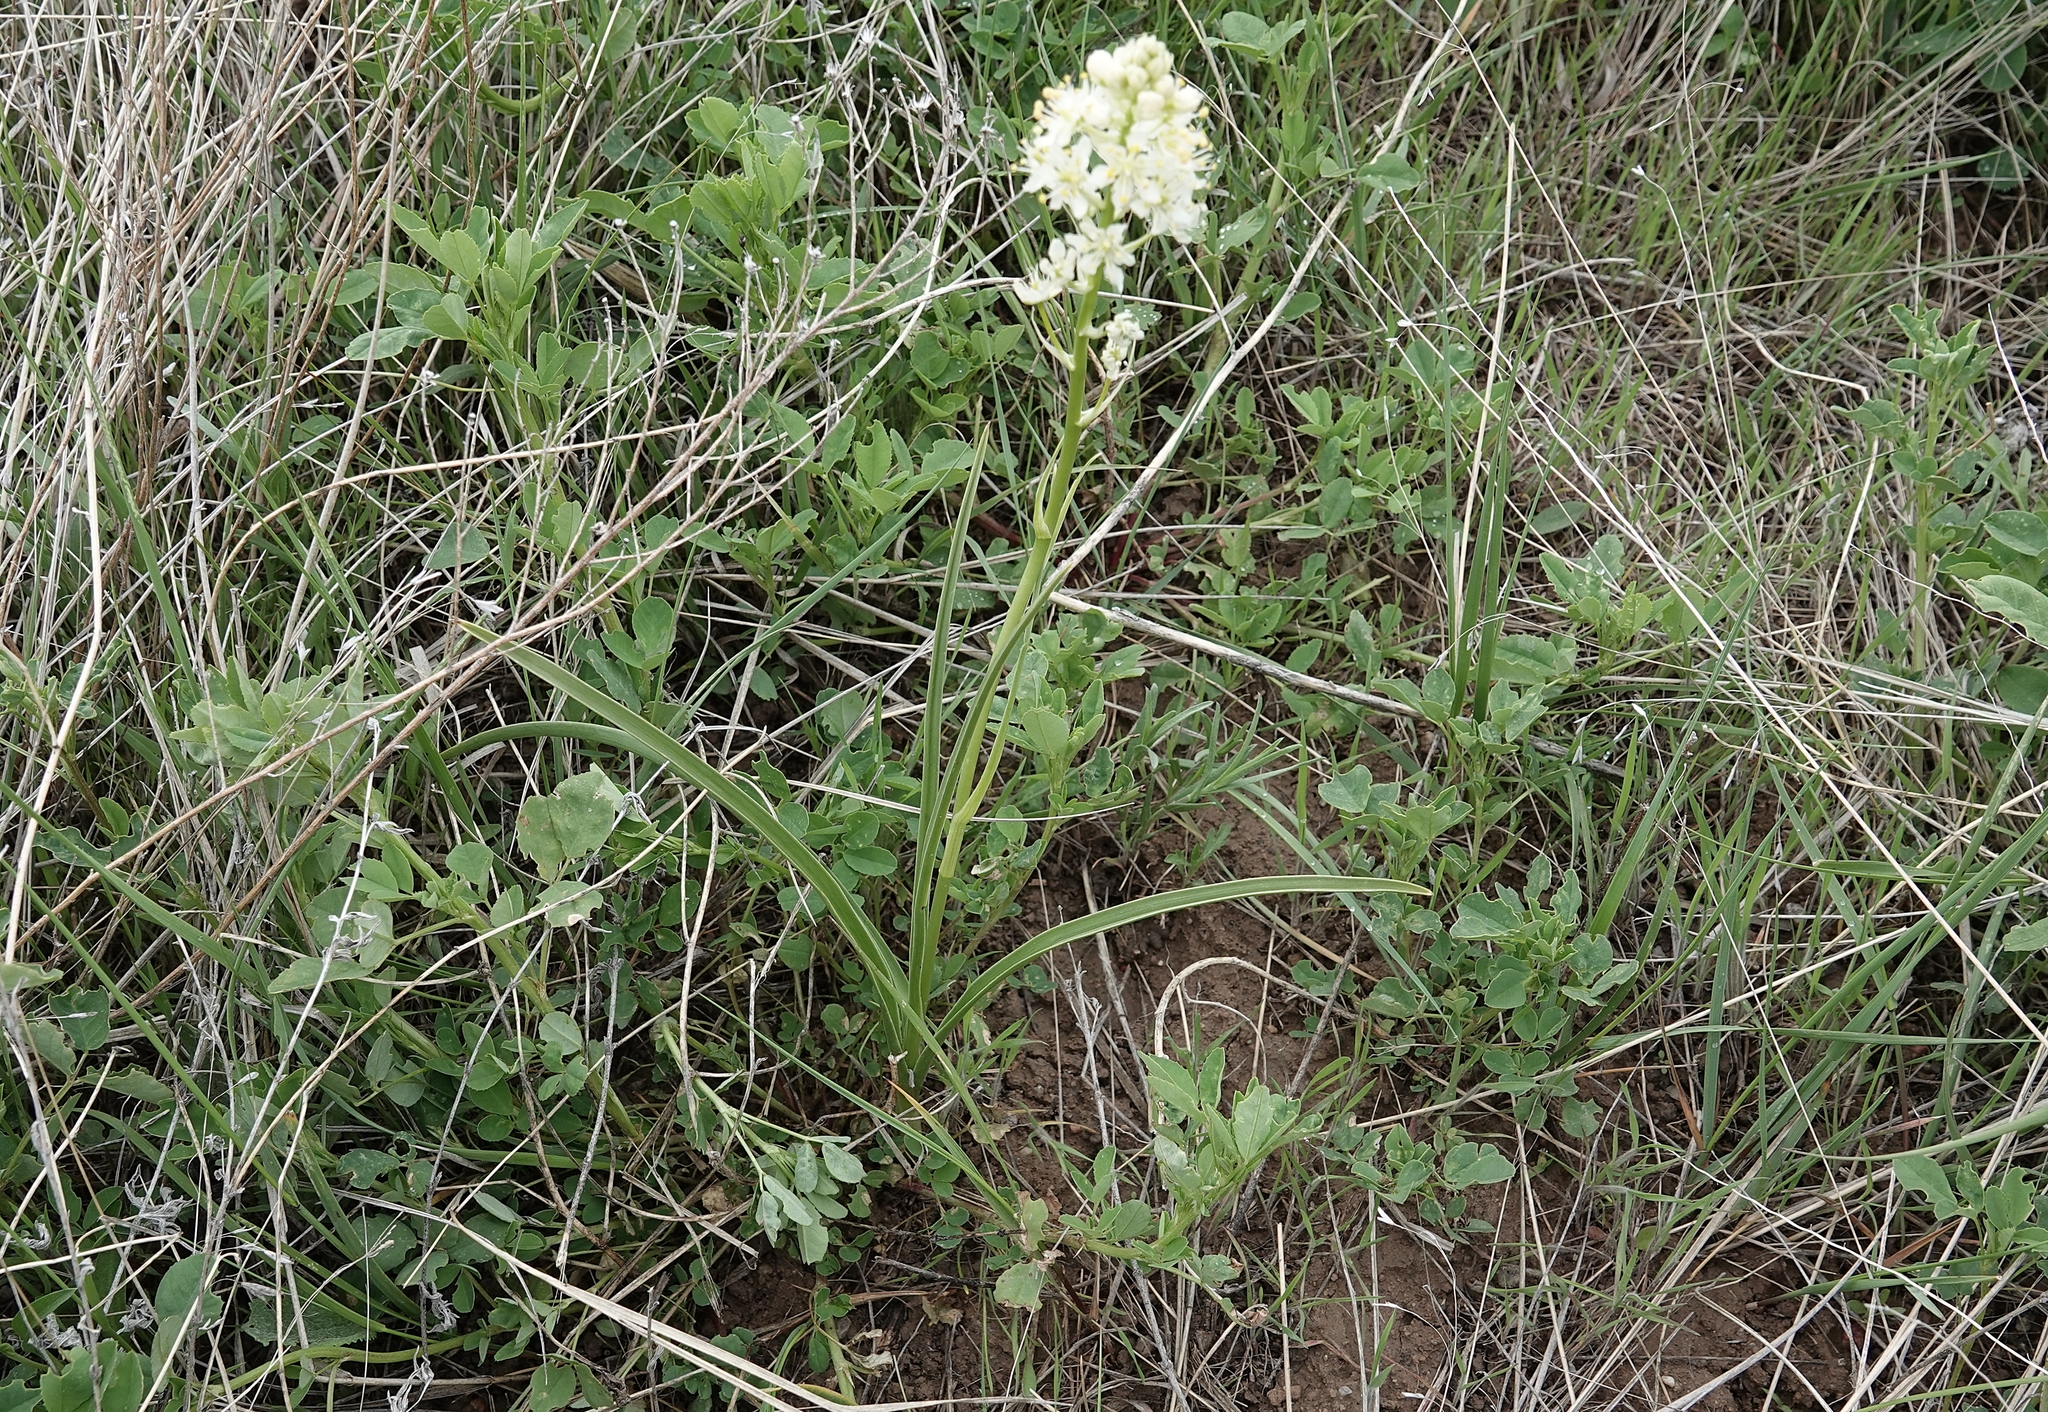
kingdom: Plantae
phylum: Tracheophyta
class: Liliopsida
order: Liliales
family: Melanthiaceae
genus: Toxicoscordion
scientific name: Toxicoscordion venenosum
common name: Meadow death camas
